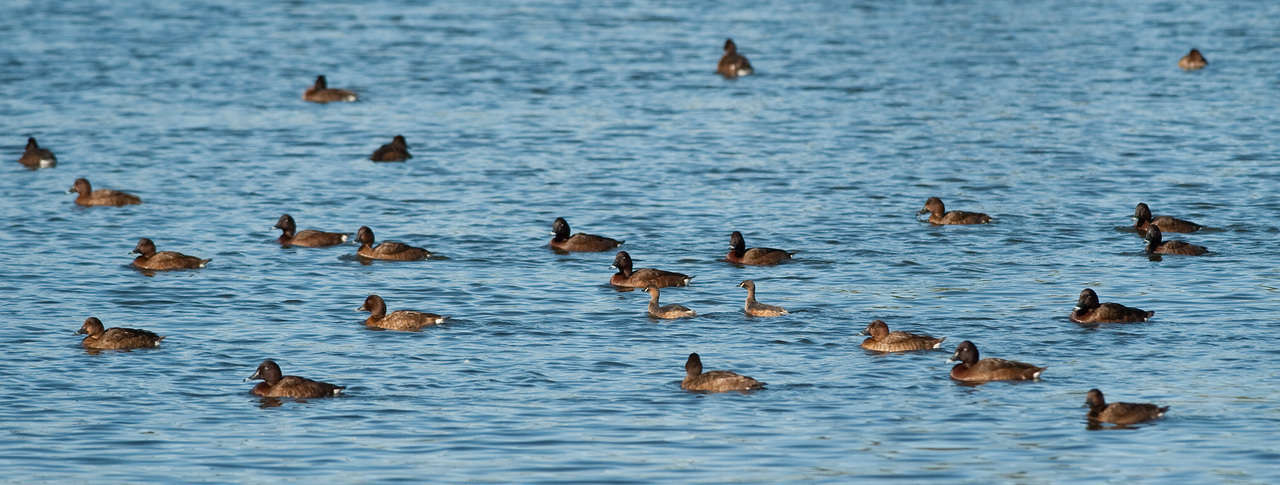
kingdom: Animalia
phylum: Chordata
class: Aves
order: Anseriformes
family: Anatidae
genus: Aythya
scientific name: Aythya australis
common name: Hardhead
